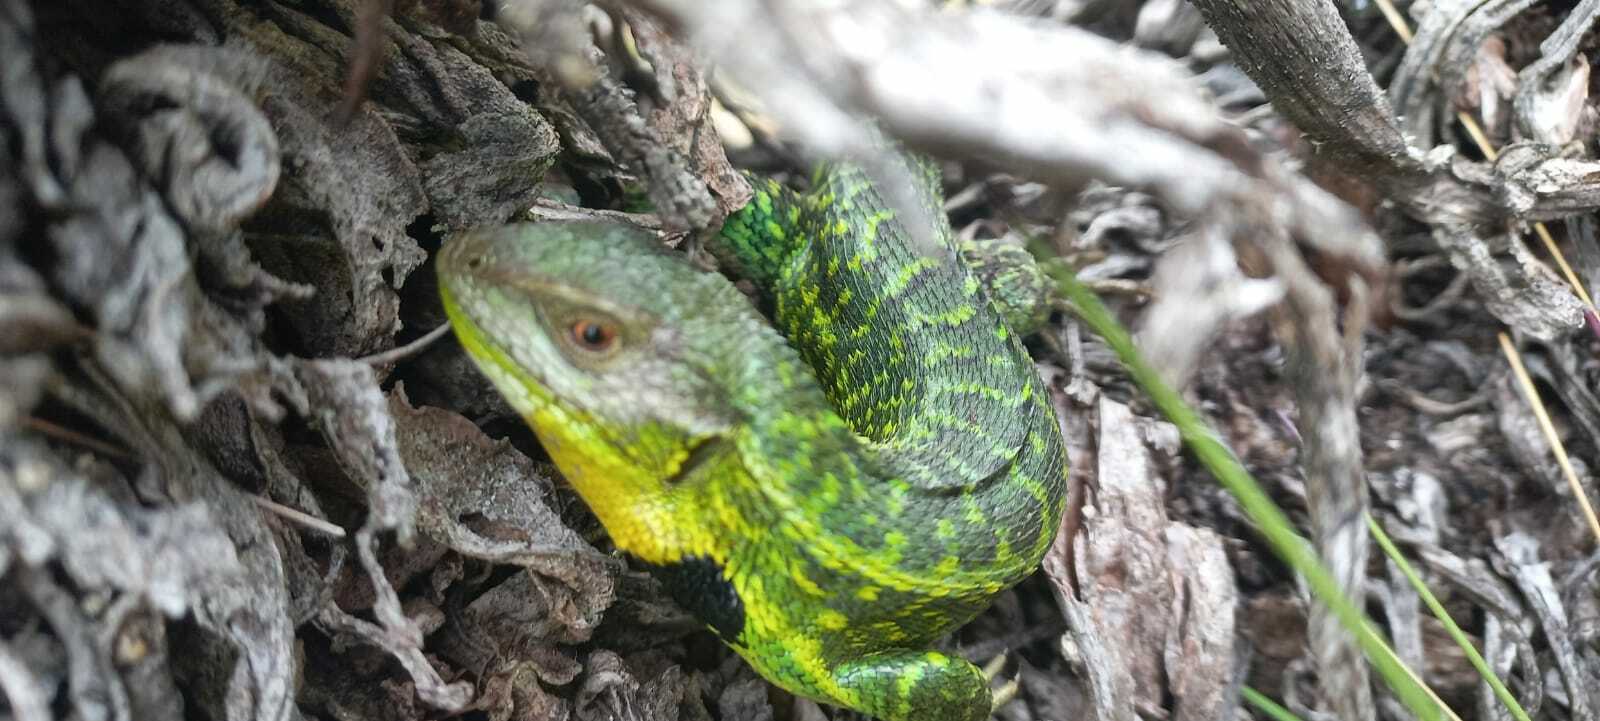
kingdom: Animalia
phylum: Chordata
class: Squamata
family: Tropiduridae
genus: Stenocercus
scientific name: Stenocercus trachycephalus
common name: Duméril's whorltail iguana
